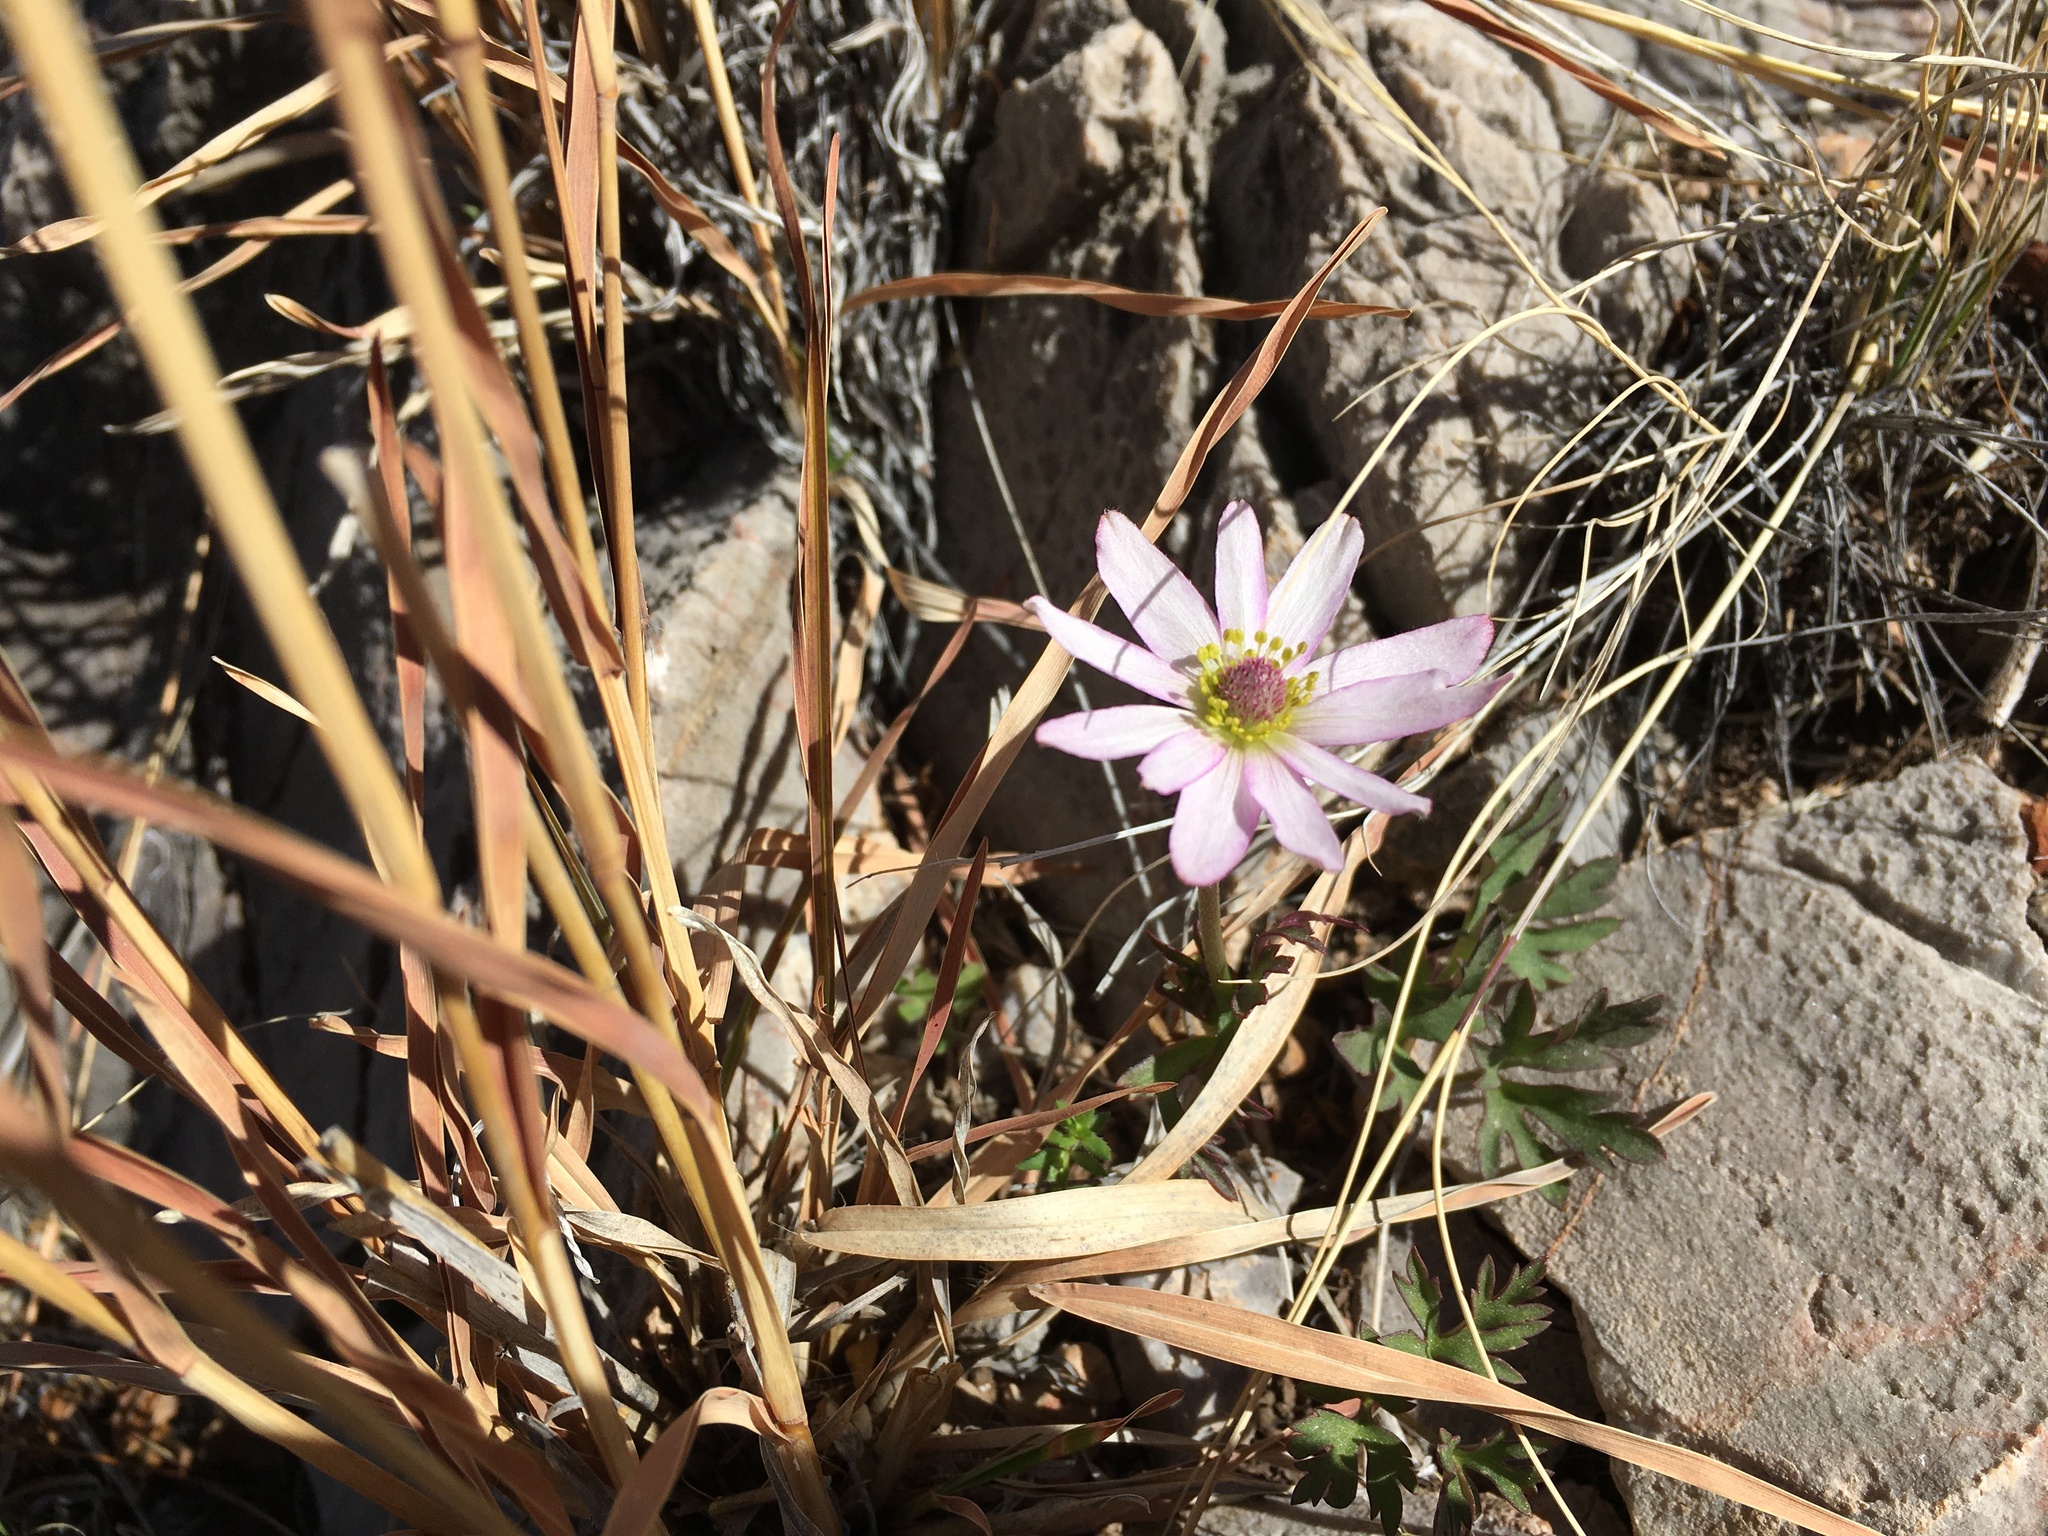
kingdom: Plantae
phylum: Tracheophyta
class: Magnoliopsida
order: Ranunculales
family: Ranunculaceae
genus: Anemone
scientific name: Anemone tuberosa
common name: Desert anemone
